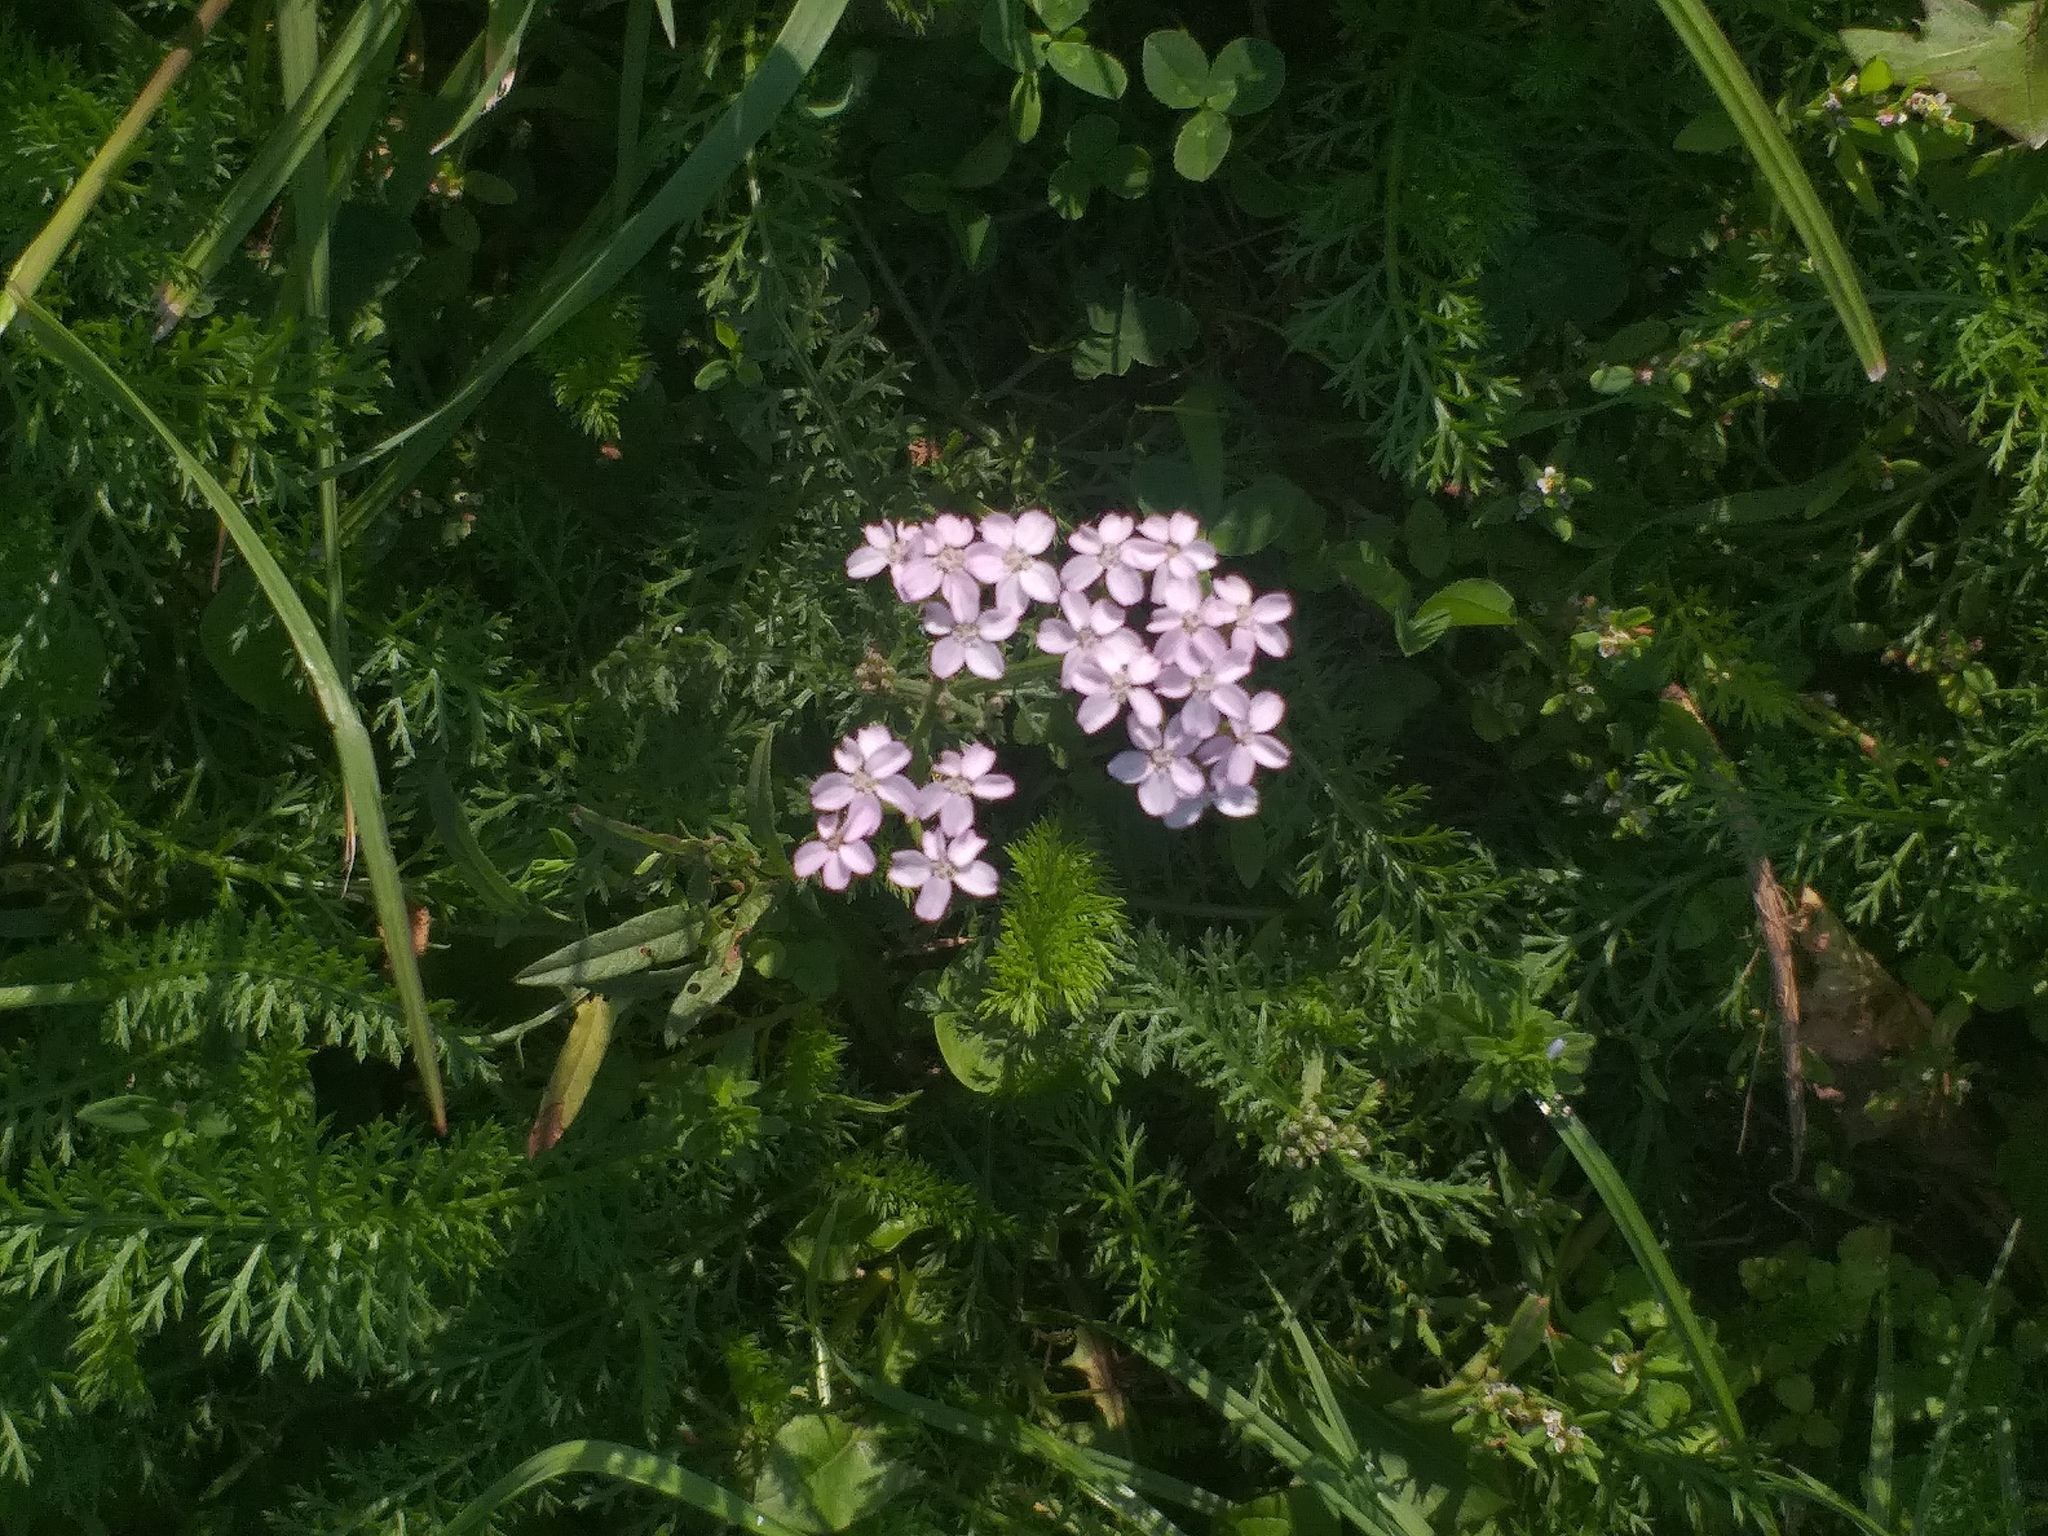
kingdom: Plantae
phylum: Tracheophyta
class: Magnoliopsida
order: Asterales
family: Asteraceae
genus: Achillea
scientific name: Achillea millefolium
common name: Yarrow
